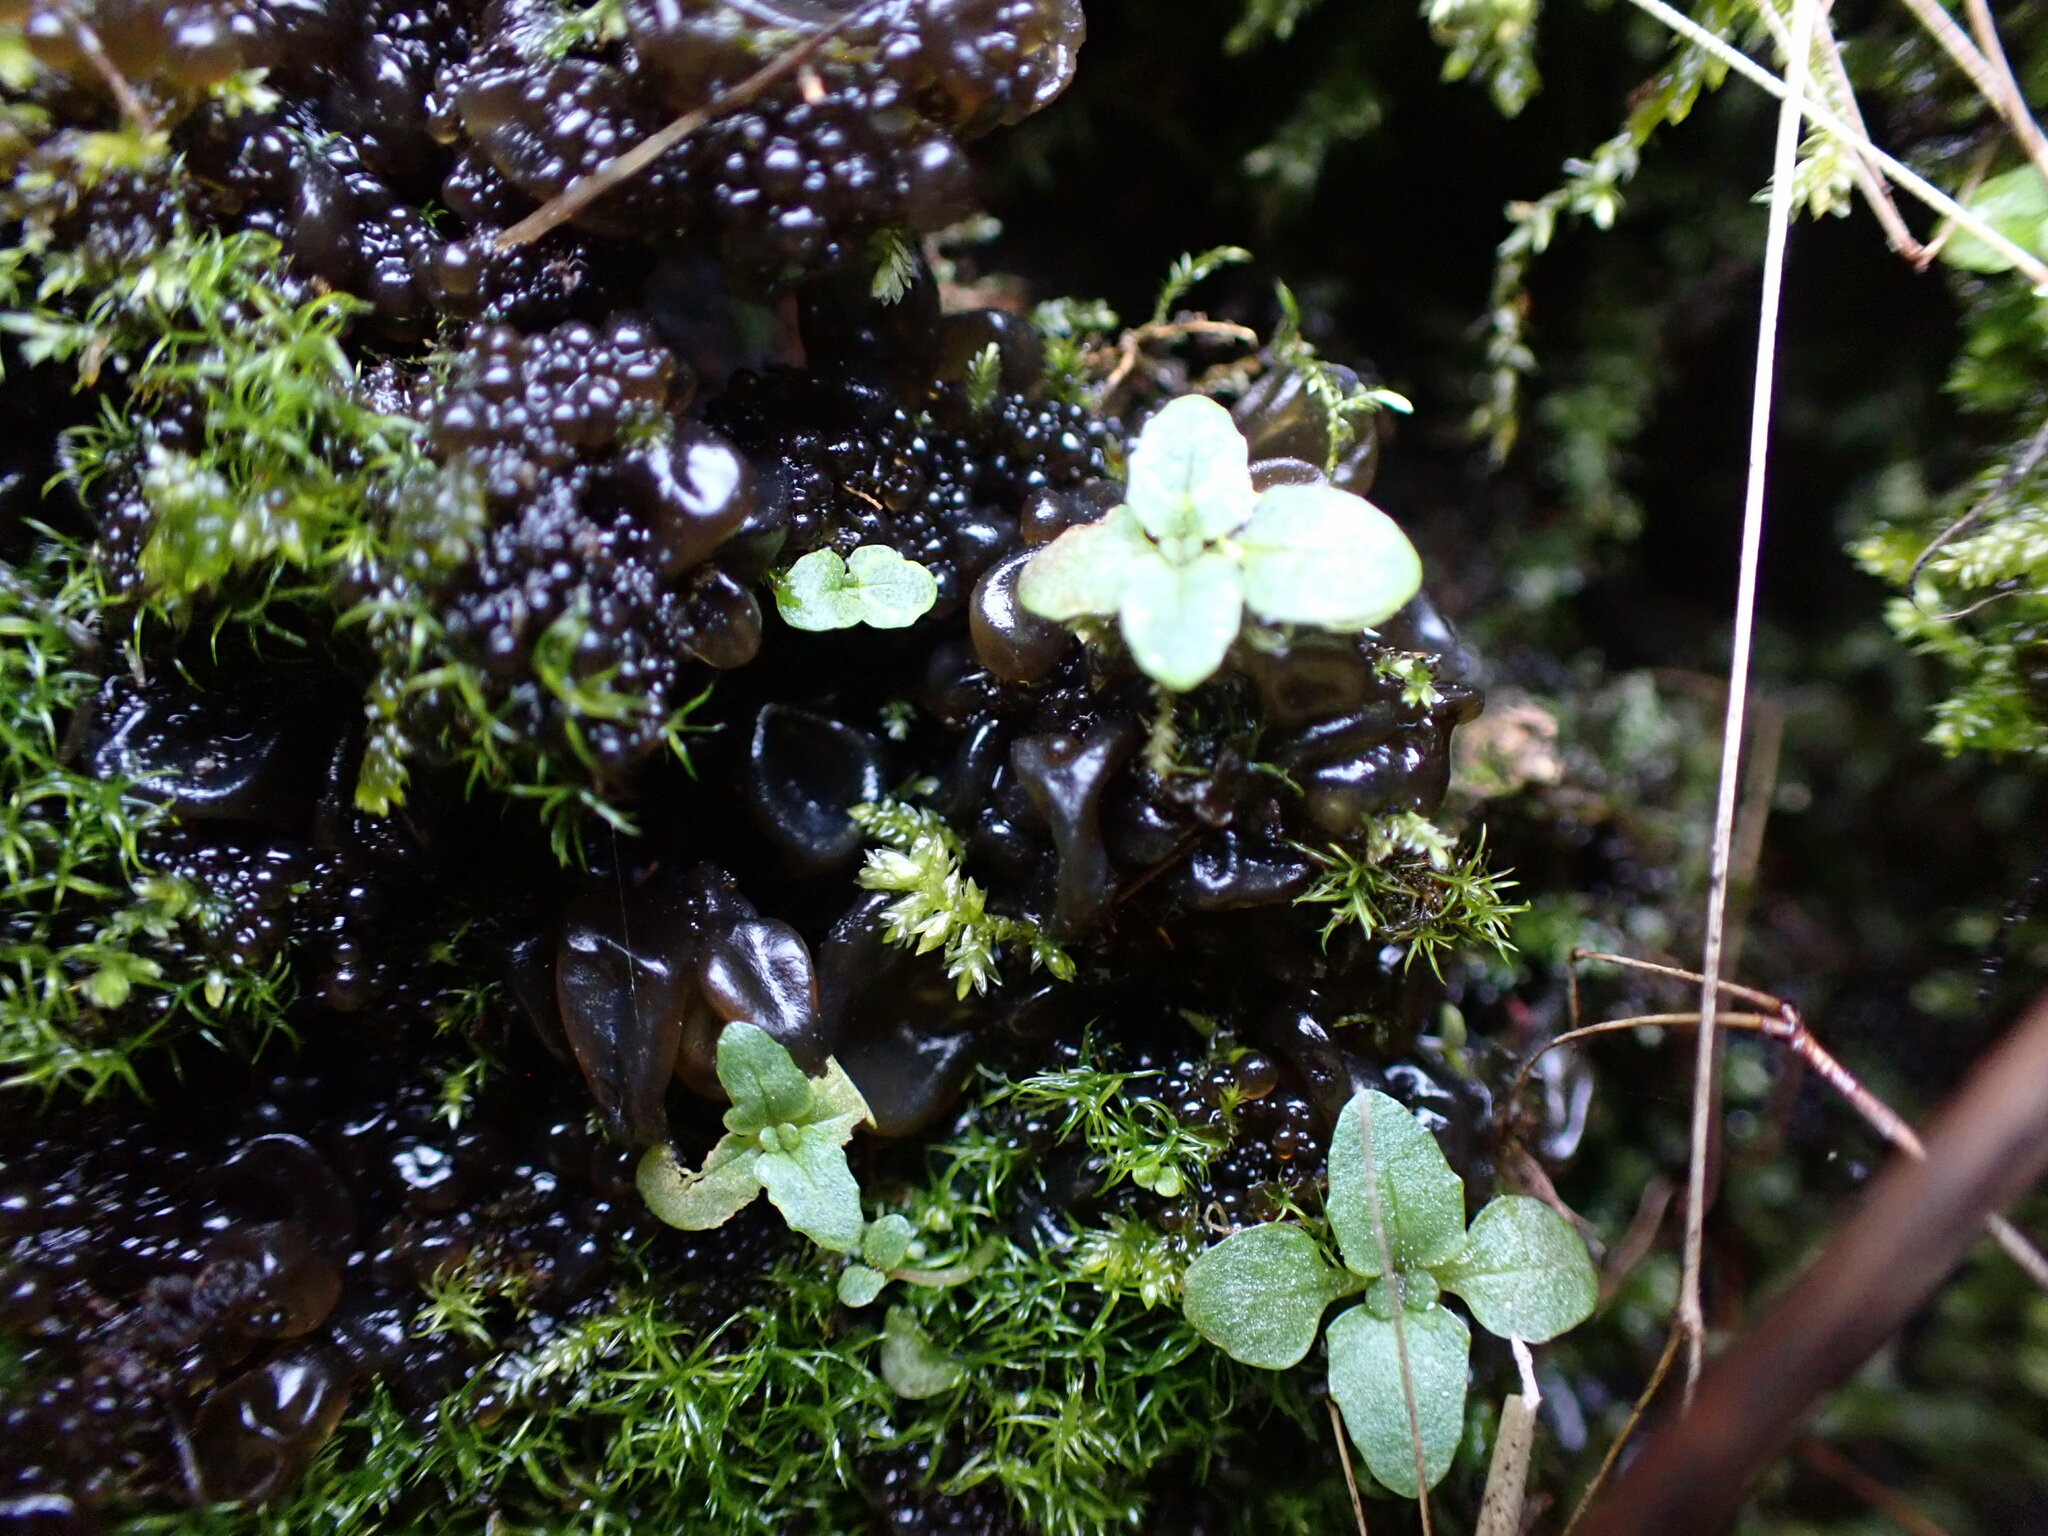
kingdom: Bacteria
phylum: Cyanobacteria
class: Cyanobacteriia
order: Cyanobacteriales
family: Nostocaceae
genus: Nostoc
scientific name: Nostoc commune
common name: Star jelly
